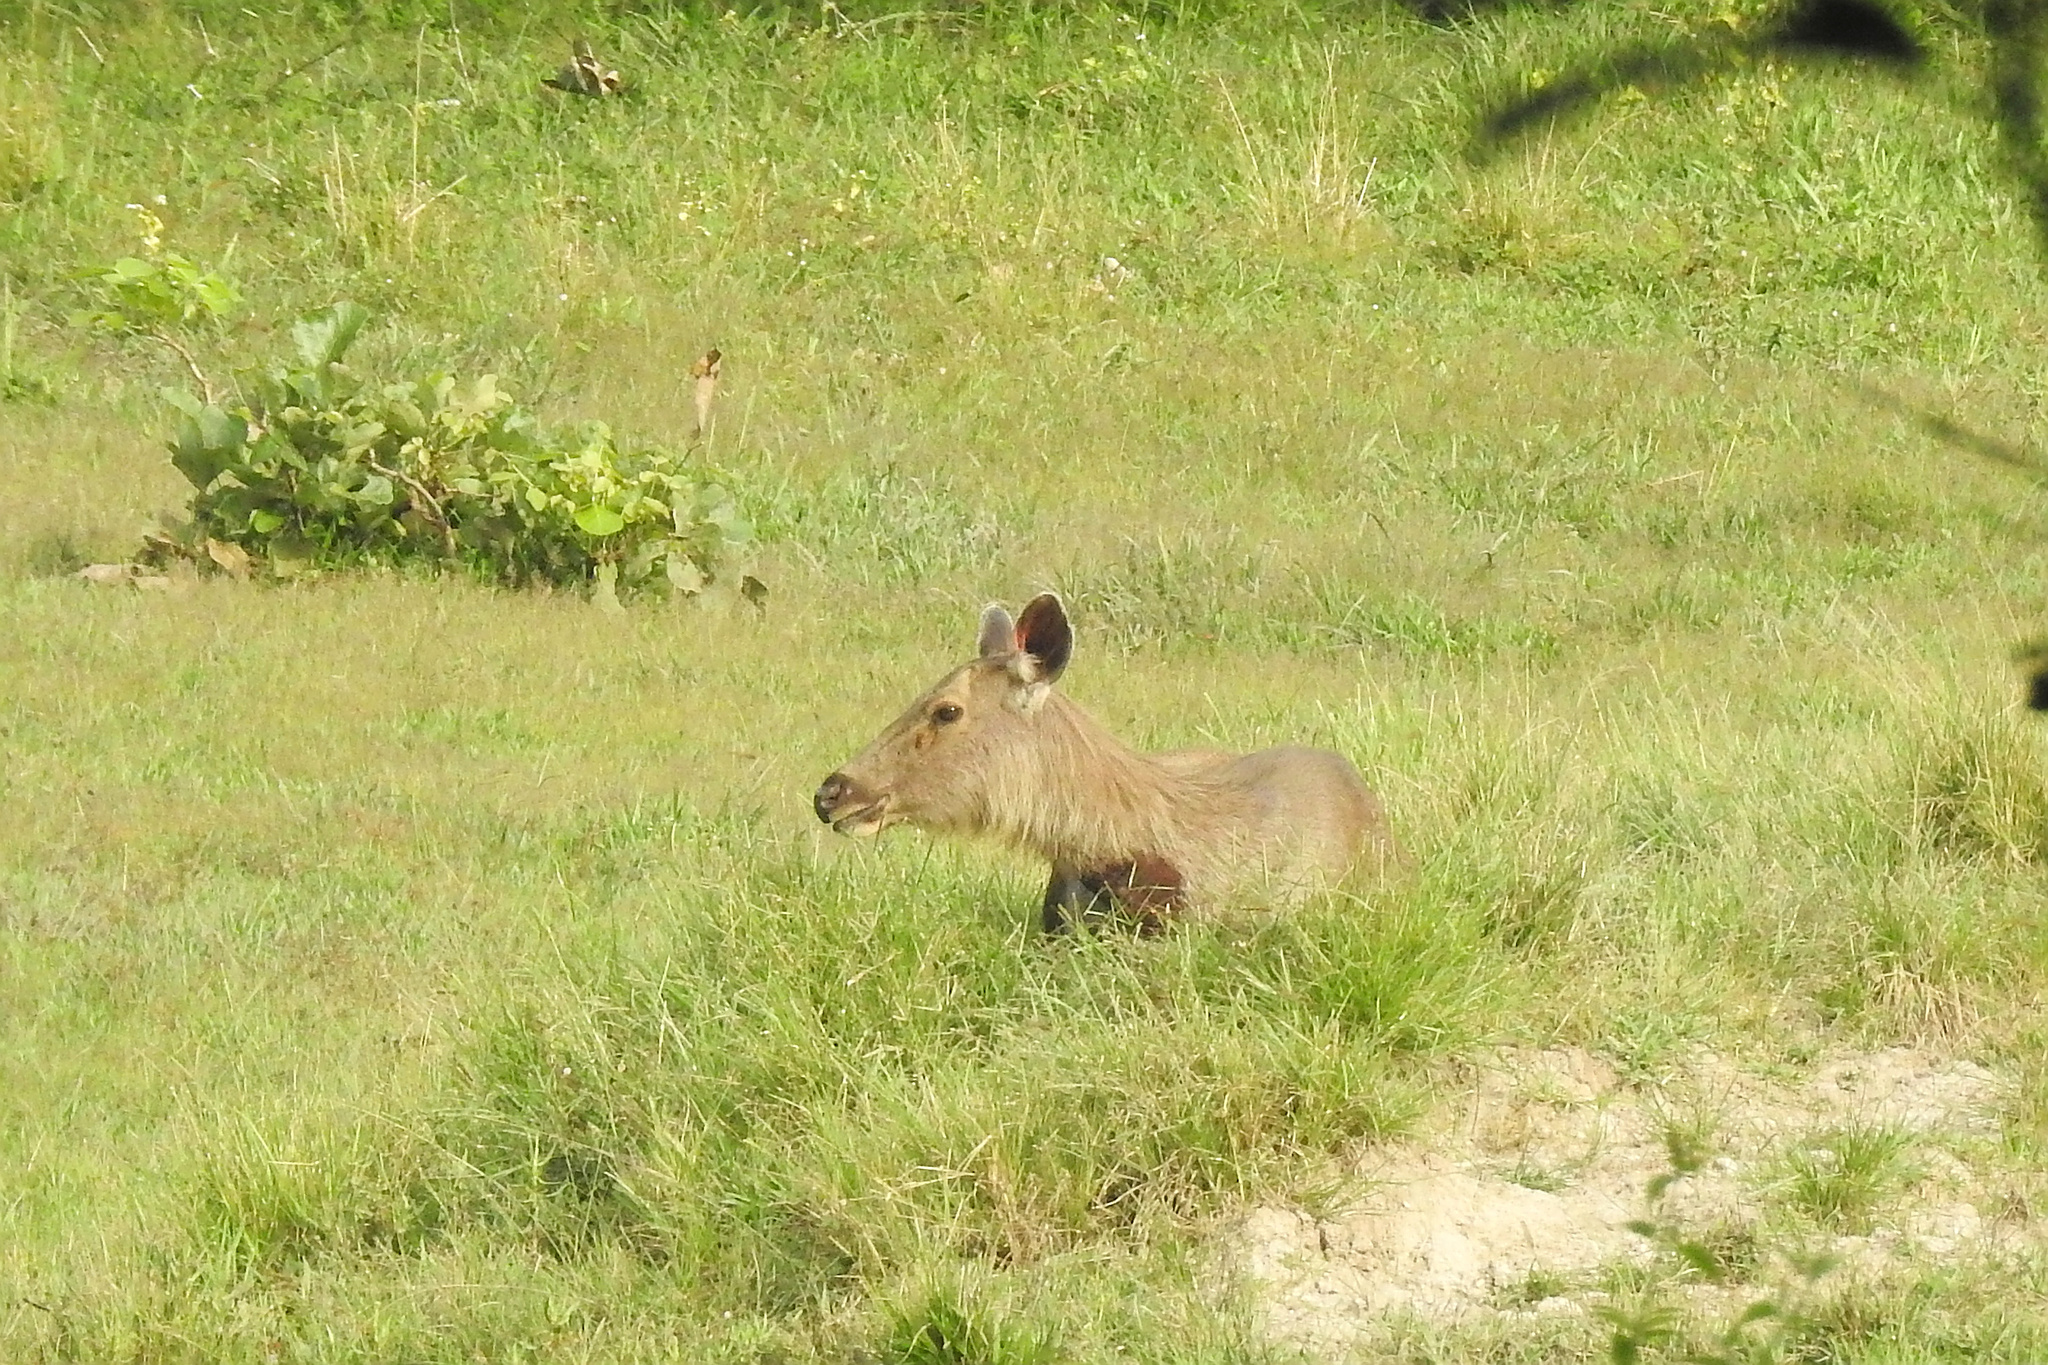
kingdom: Animalia
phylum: Chordata
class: Mammalia
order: Artiodactyla
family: Cervidae
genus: Rusa
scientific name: Rusa unicolor
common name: Sambar
